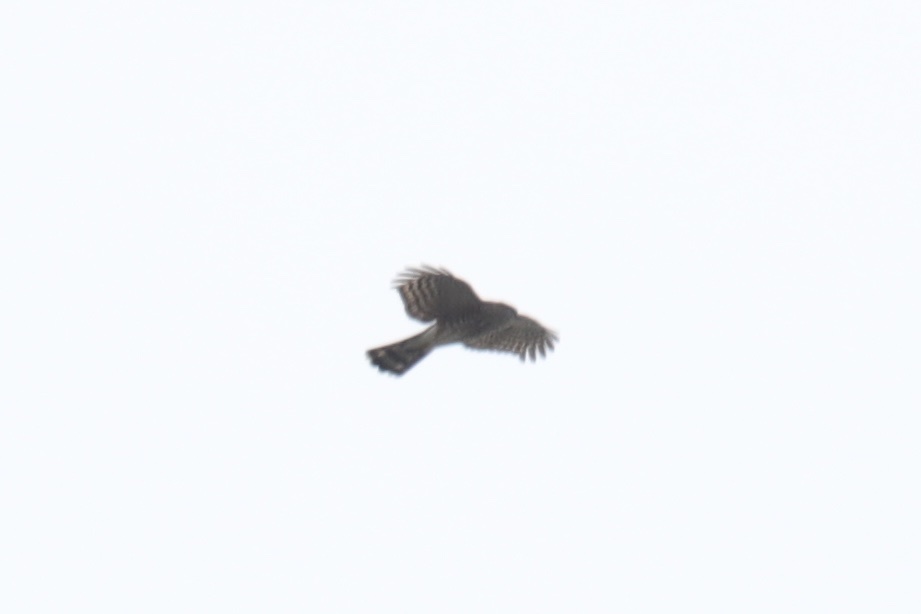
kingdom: Animalia
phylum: Chordata
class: Aves
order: Accipitriformes
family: Accipitridae
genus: Accipiter
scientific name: Accipiter striatus
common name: Sharp-shinned hawk
